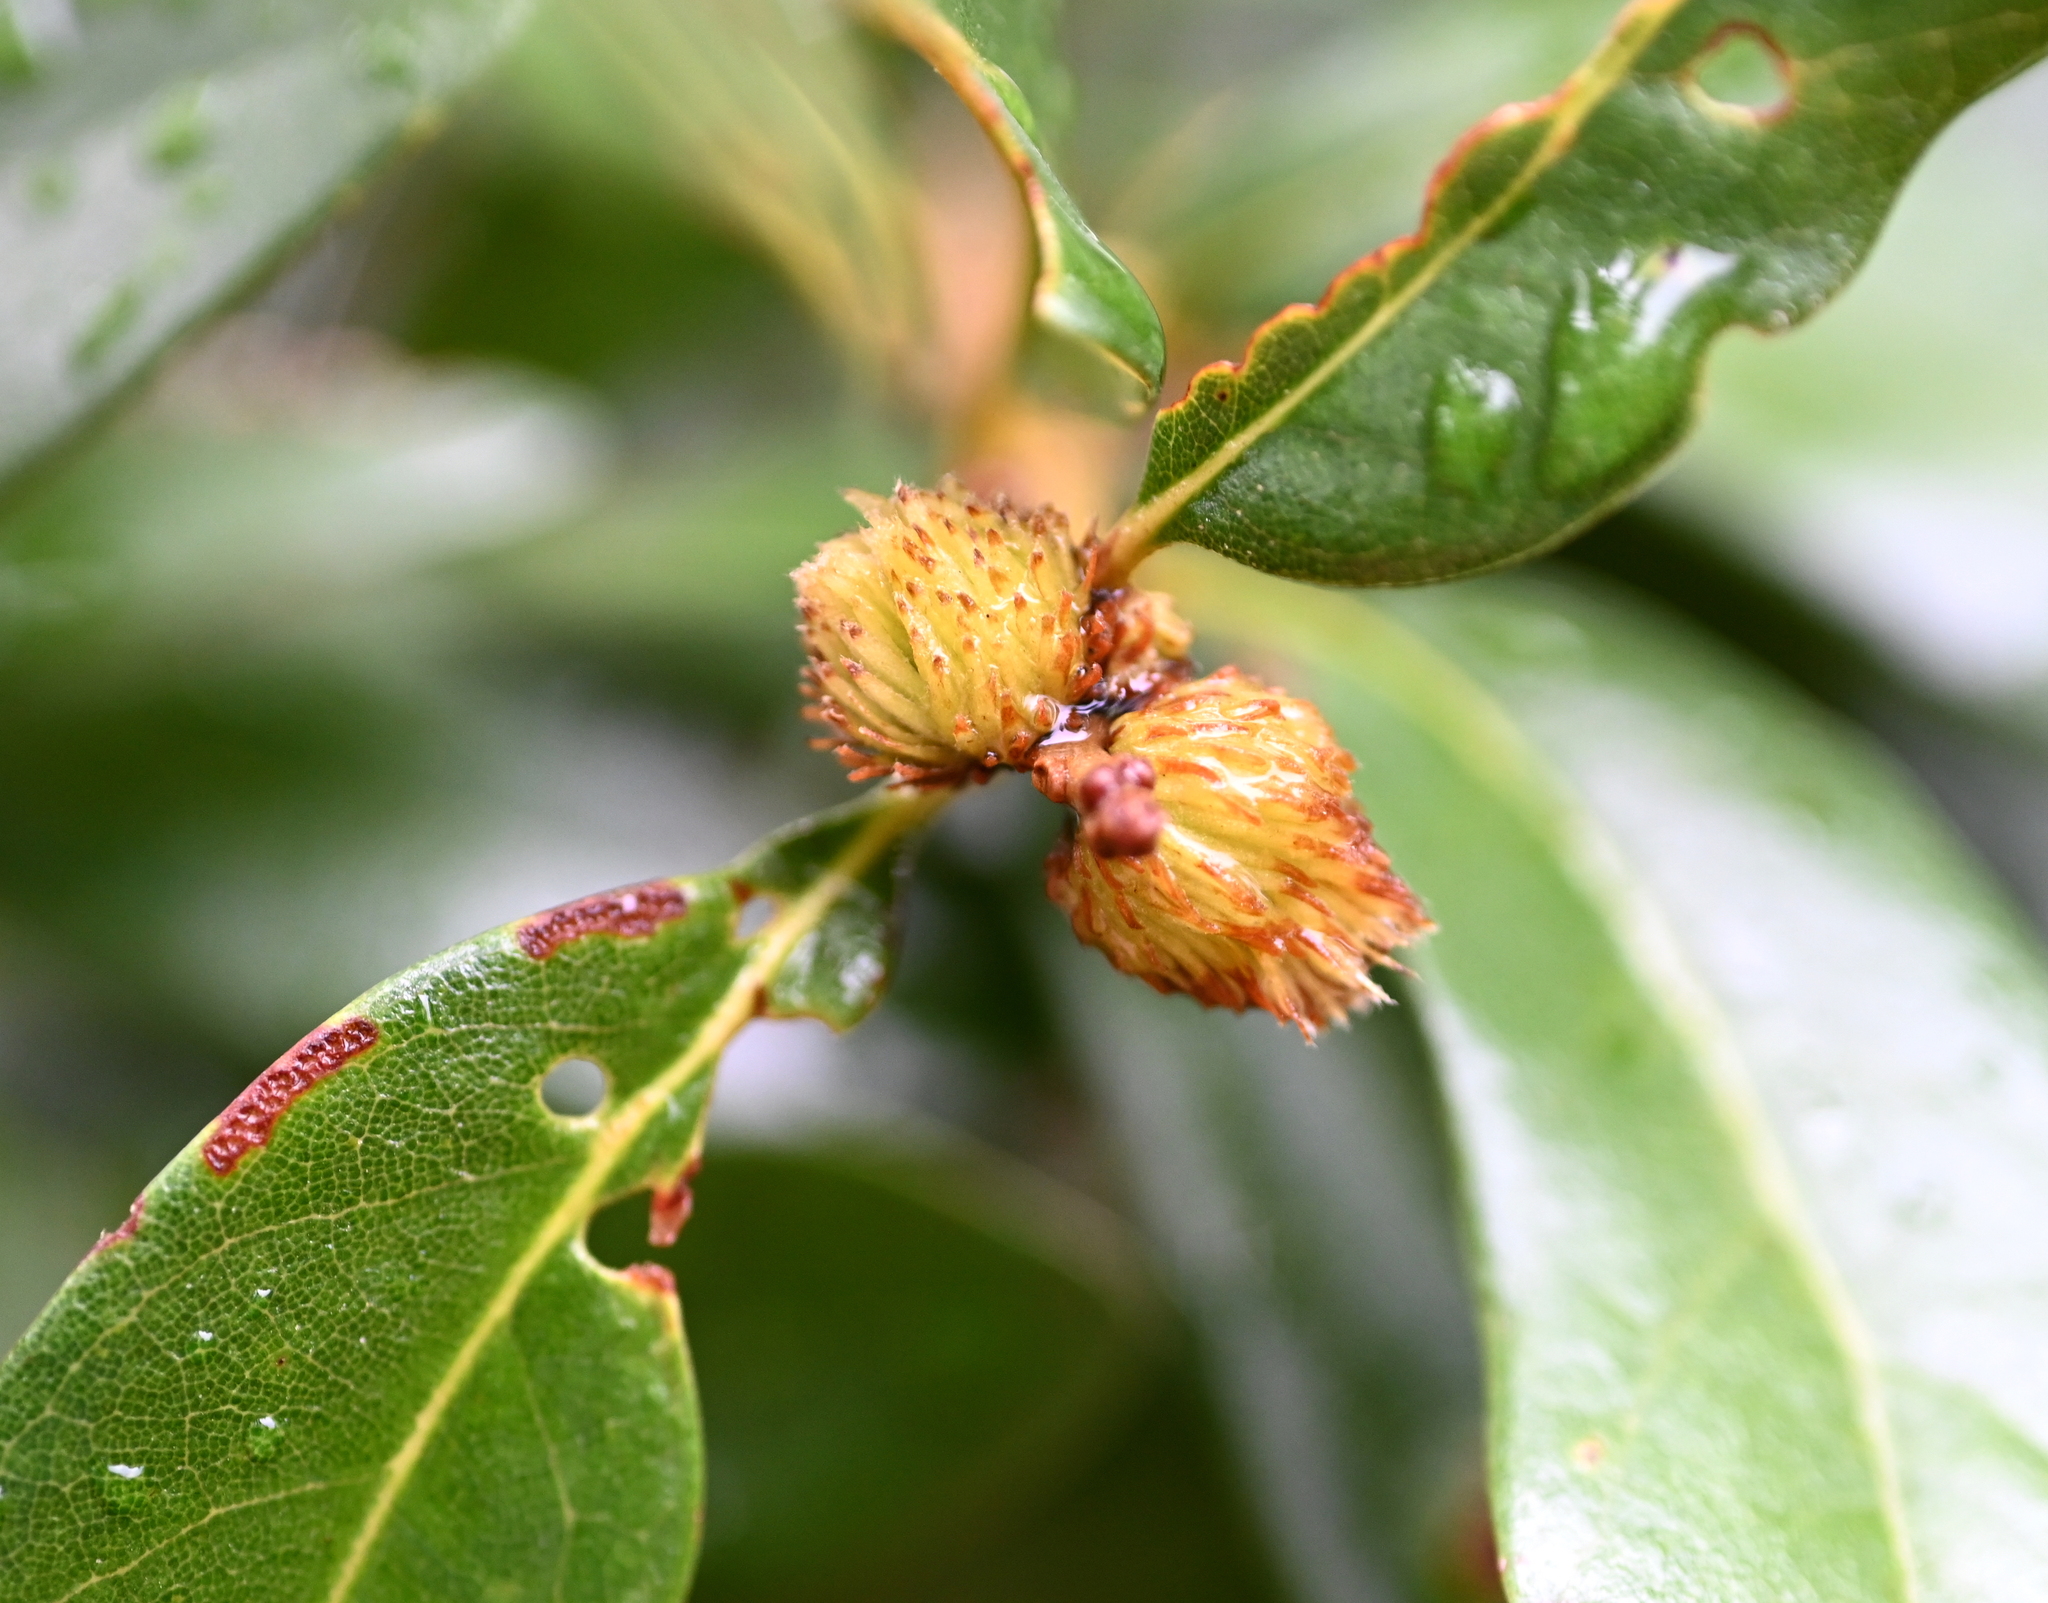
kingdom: Animalia
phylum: Arthropoda
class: Insecta
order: Hymenoptera
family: Cynipidae
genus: Andricus
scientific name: Andricus quercusfoliatus
